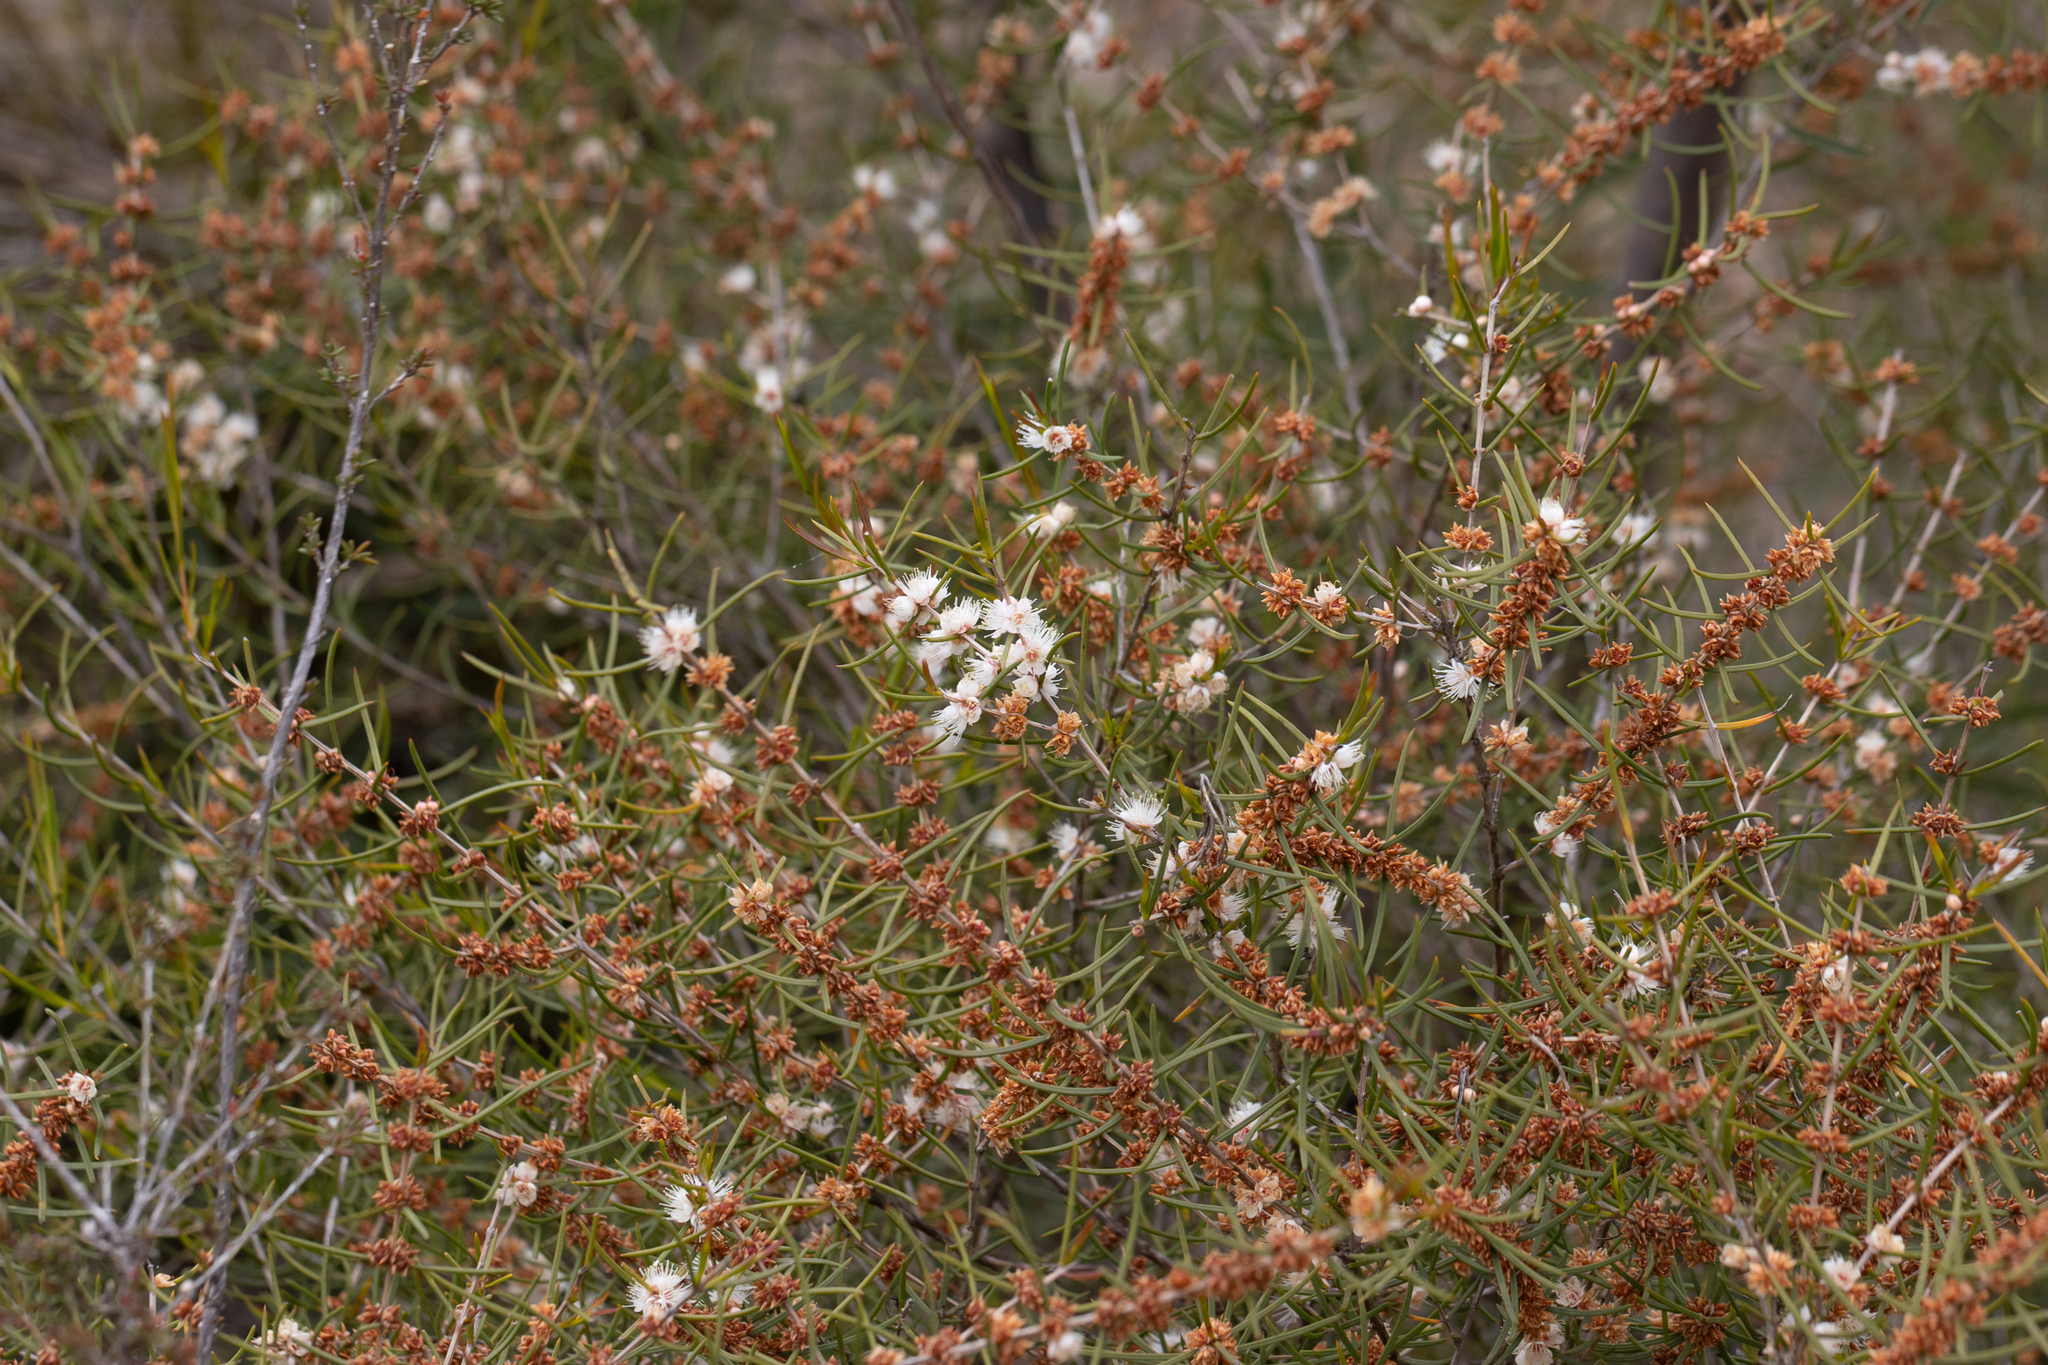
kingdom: Plantae
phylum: Tracheophyta
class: Magnoliopsida
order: Myrtales
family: Myrtaceae
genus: Hypocalymma
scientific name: Hypocalymma angustifolium
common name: White myrtle
